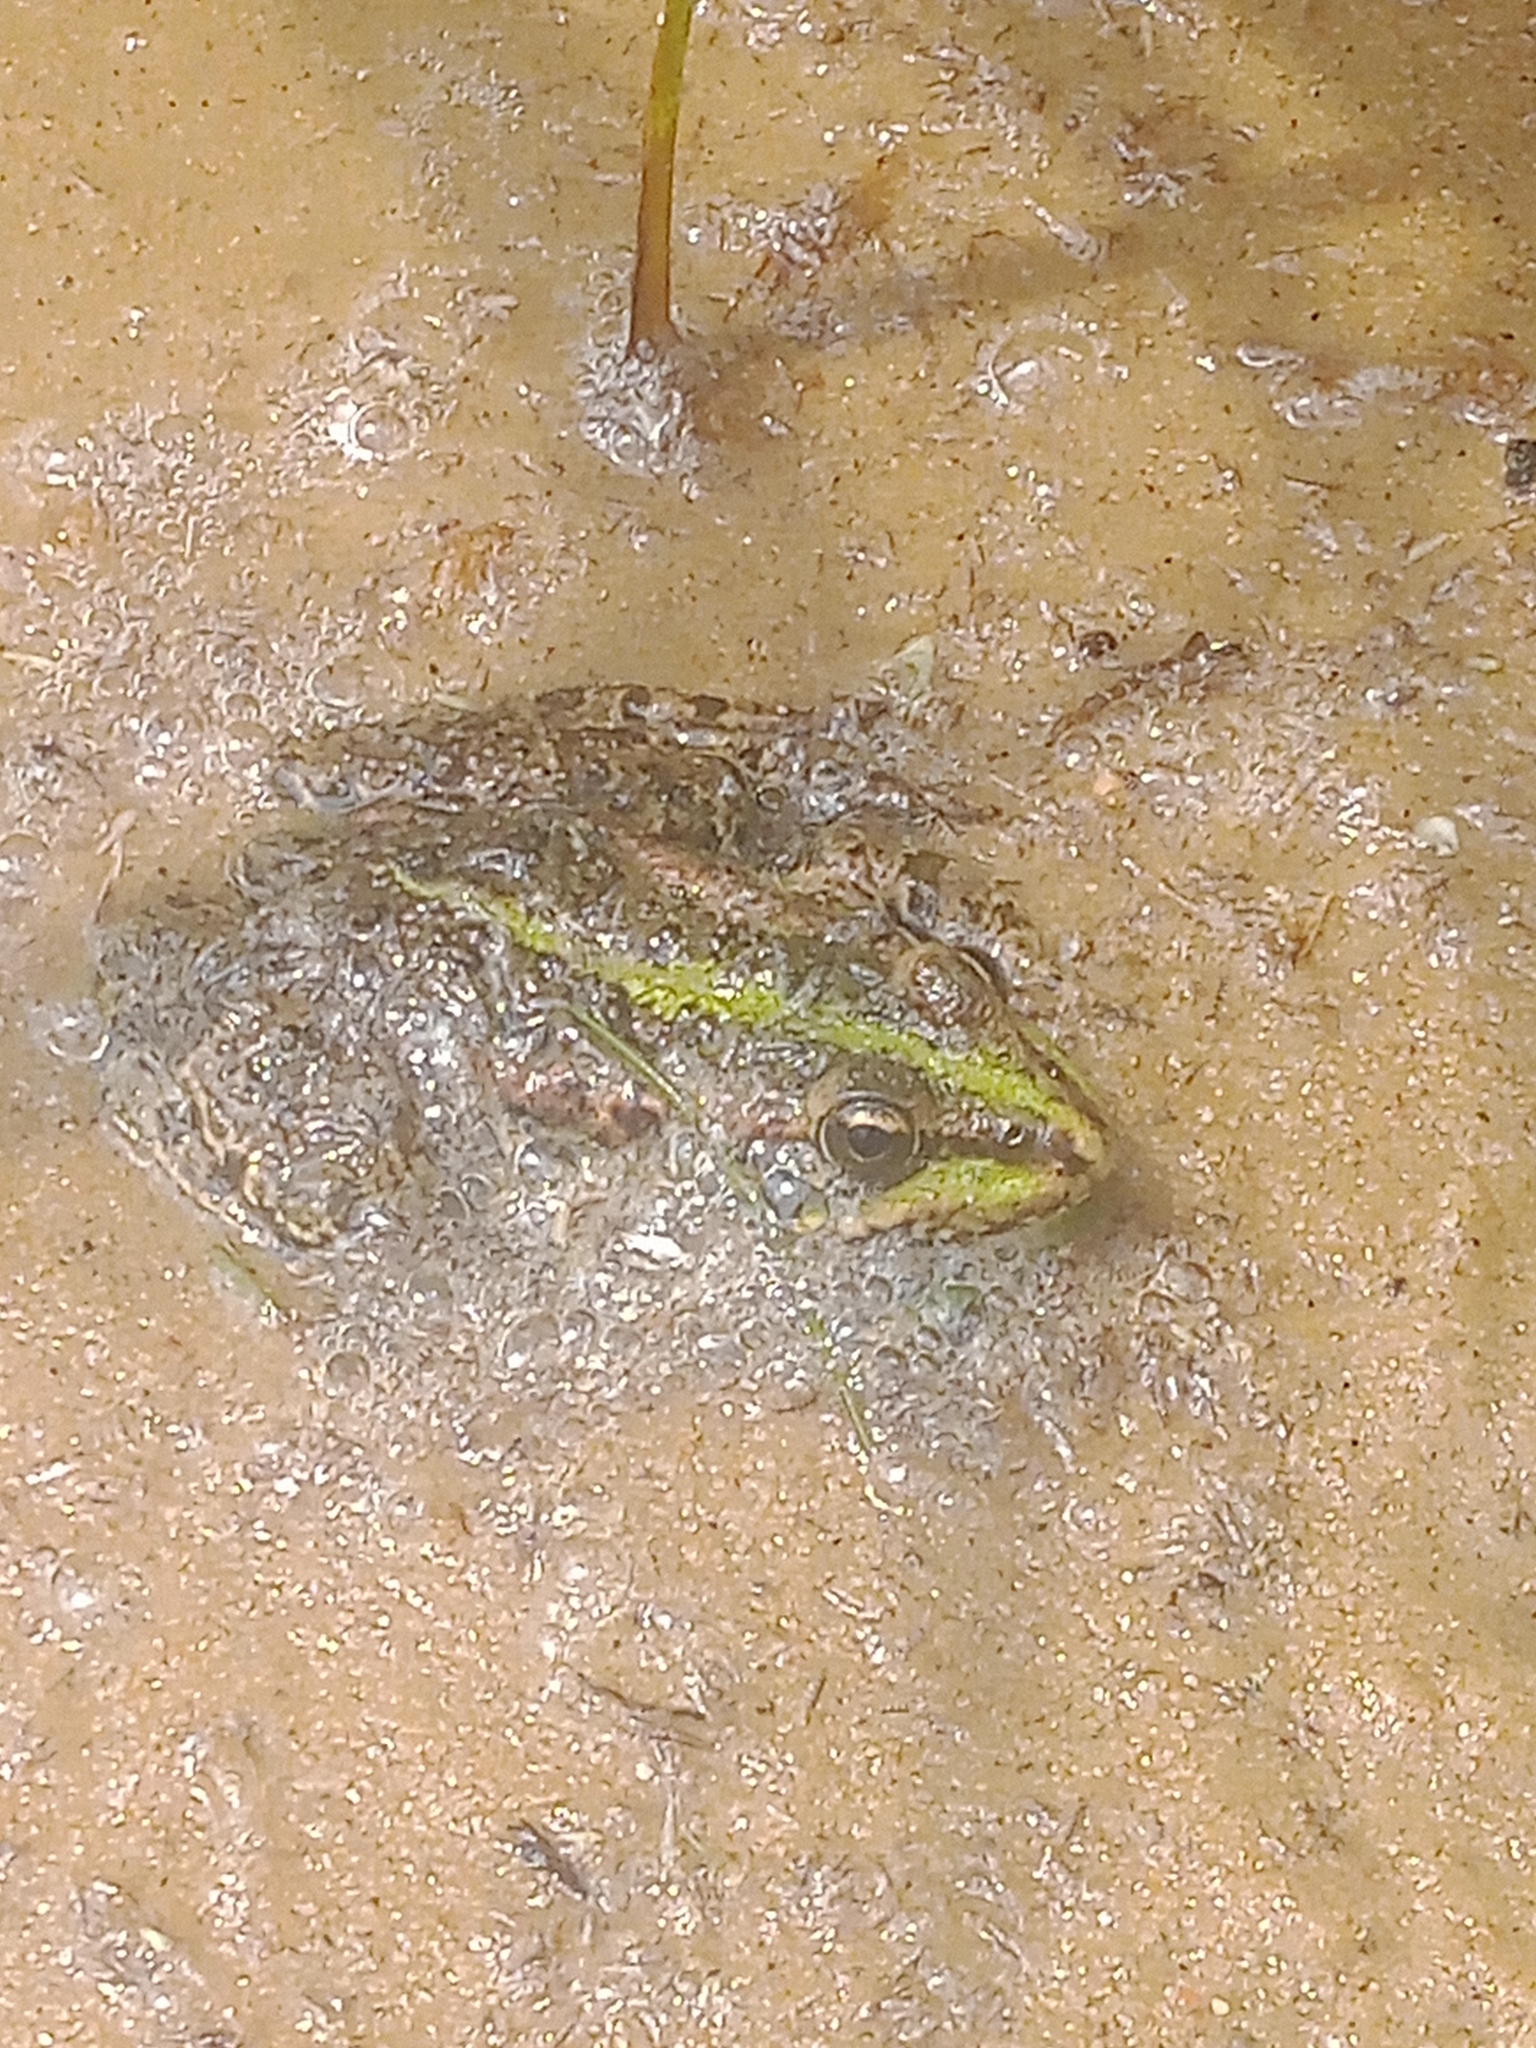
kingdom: Animalia
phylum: Chordata
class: Amphibia
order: Anura
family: Ranidae
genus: Pelophylax
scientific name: Pelophylax ridibundus
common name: Marsh frog
